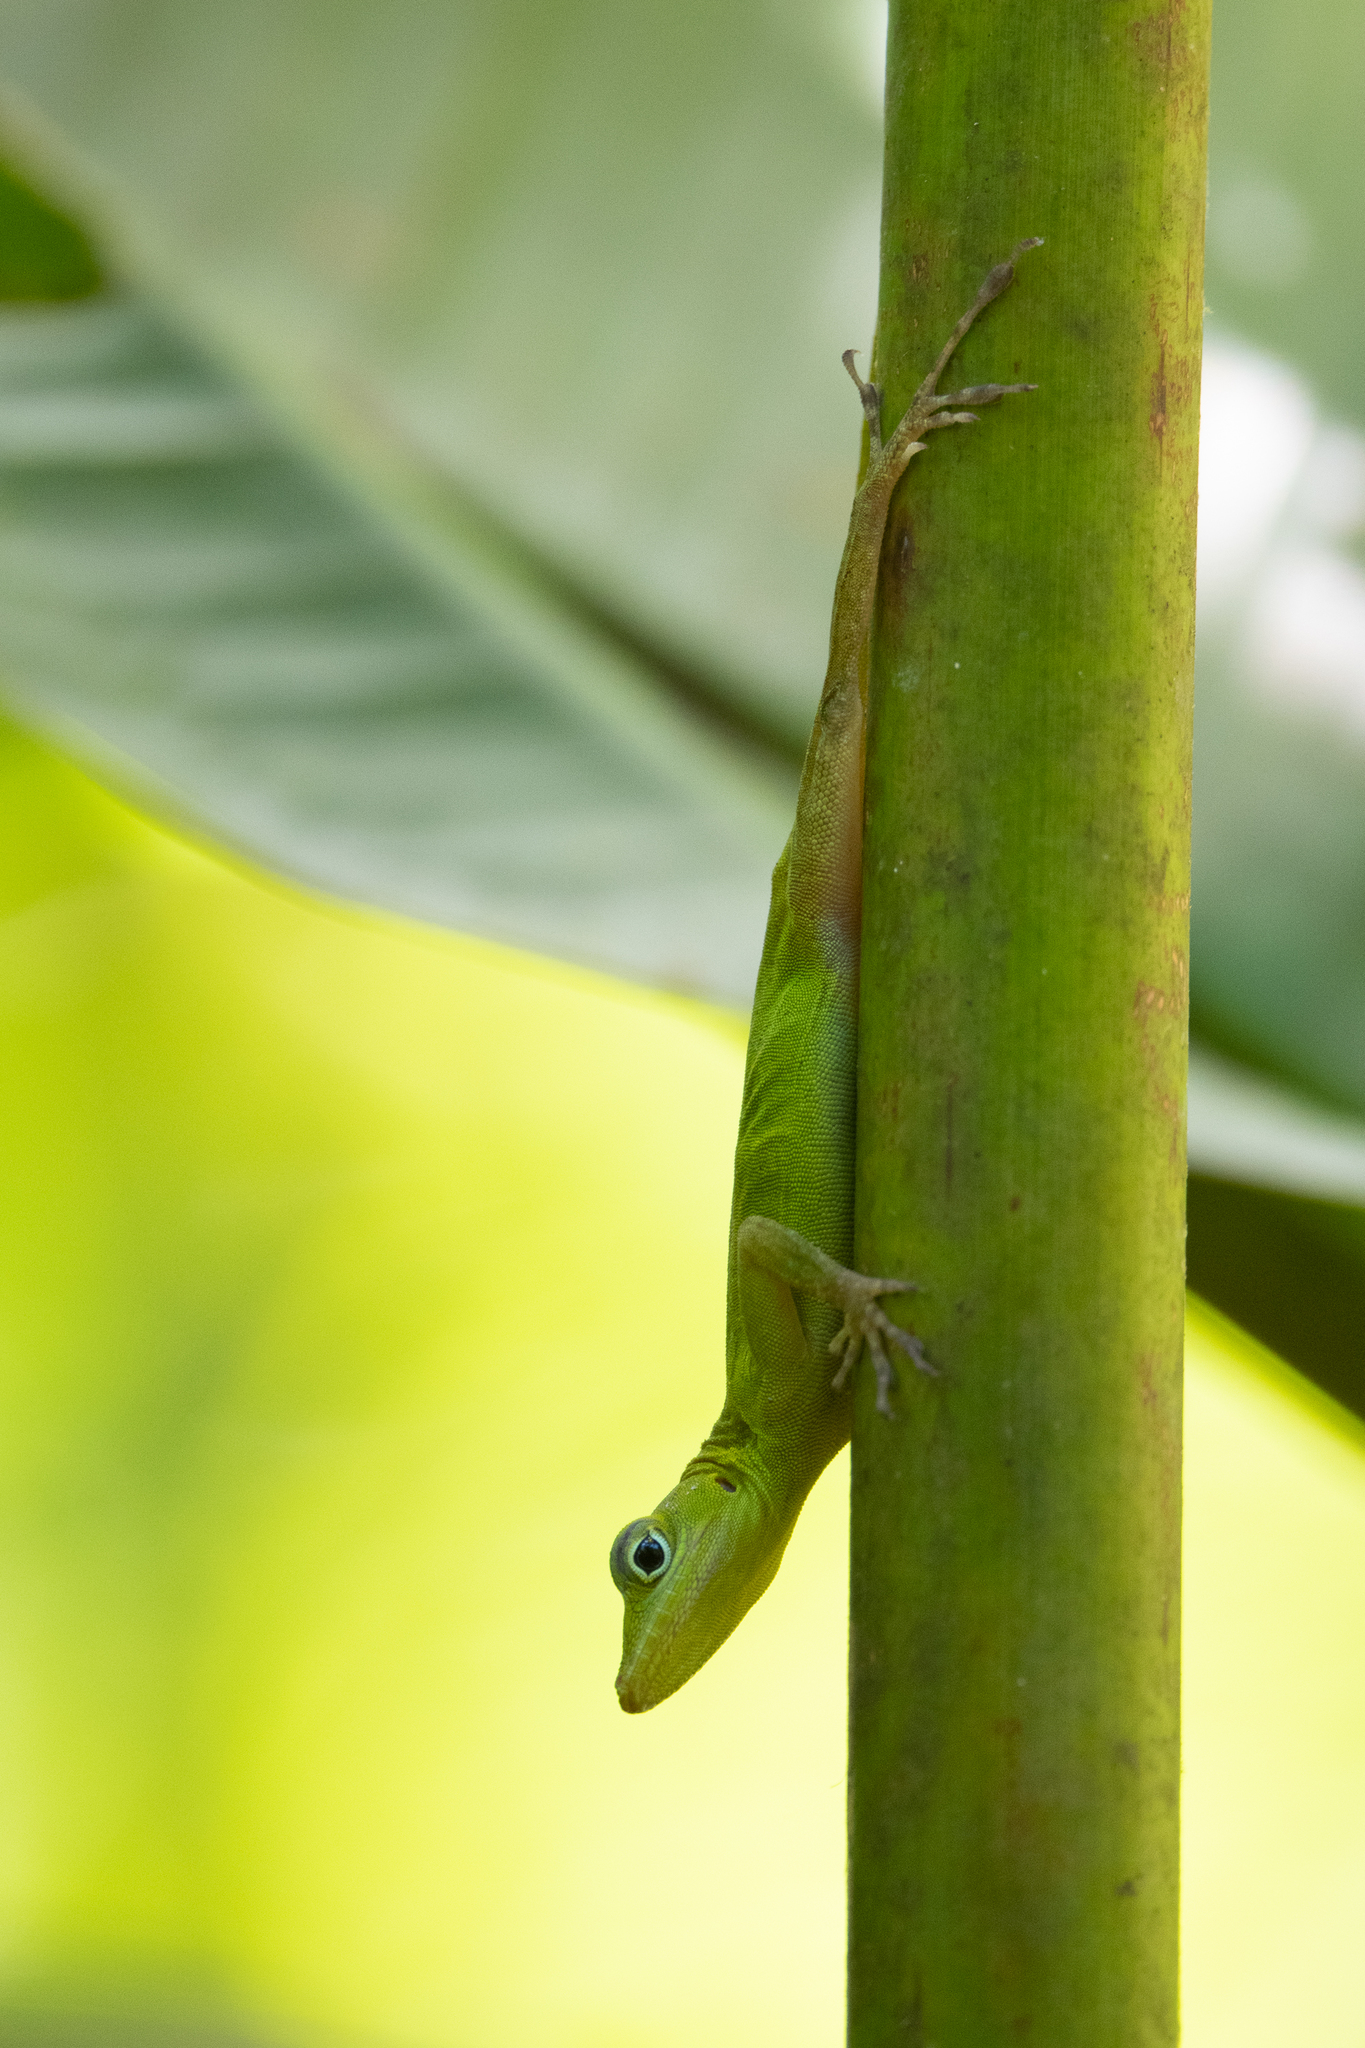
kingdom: Animalia
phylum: Chordata
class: Squamata
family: Dactyloidae
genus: Anolis
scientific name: Anolis evermanni
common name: Emerald anole
